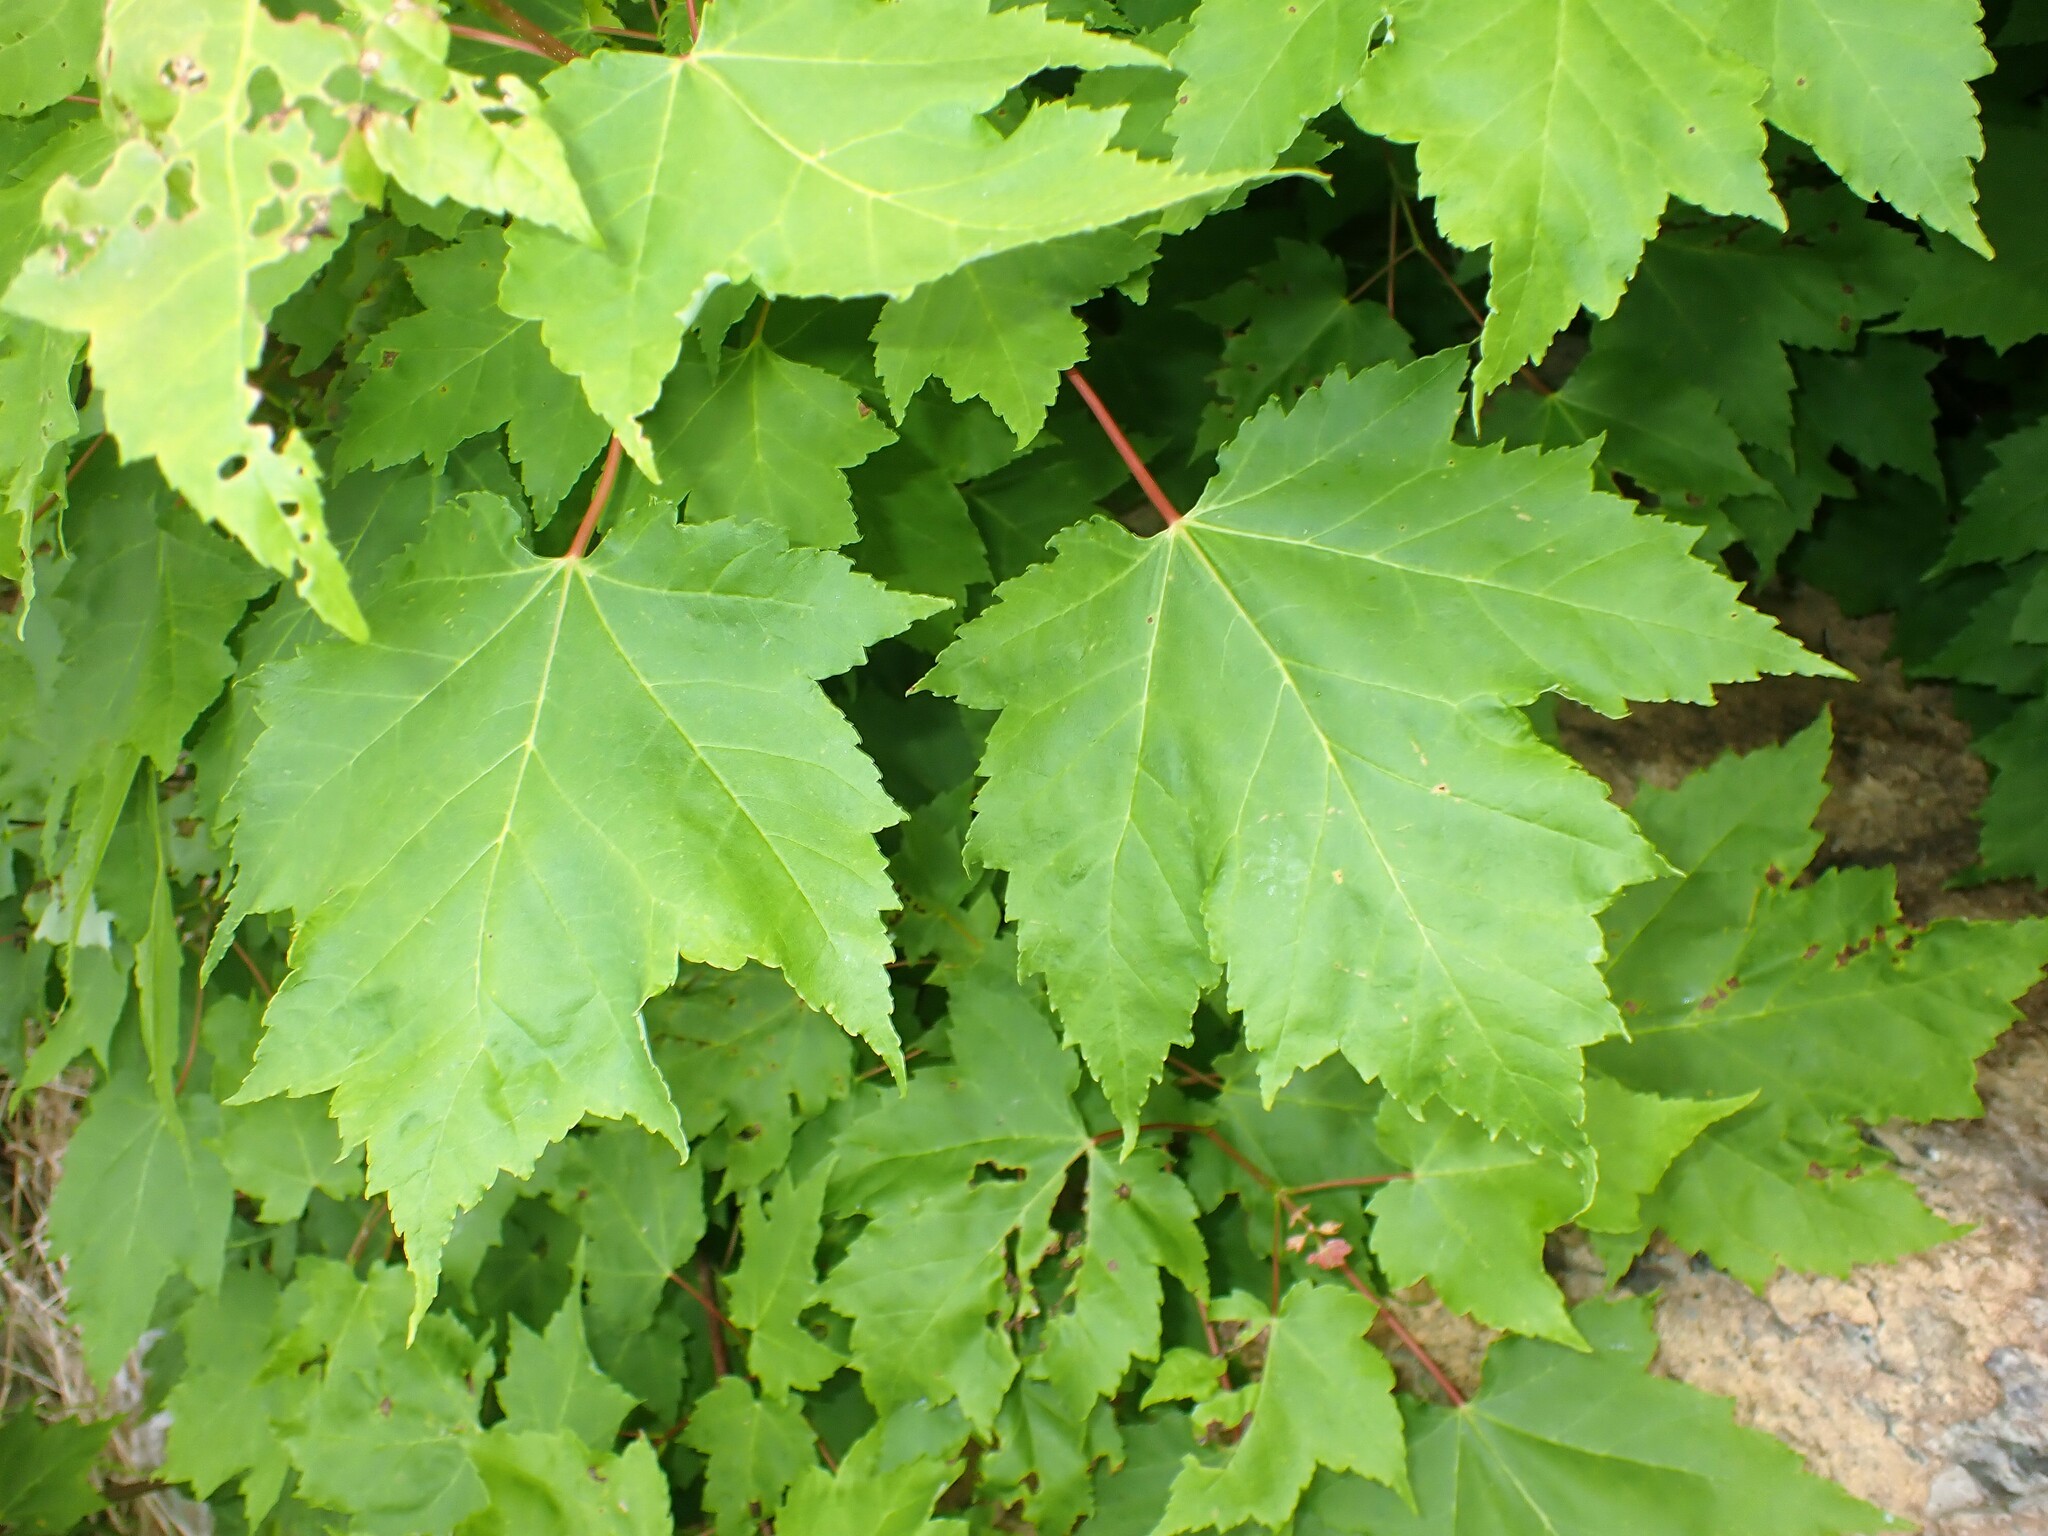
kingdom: Plantae
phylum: Tracheophyta
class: Magnoliopsida
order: Sapindales
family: Sapindaceae
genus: Acer
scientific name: Acer rubrum
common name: Red maple
